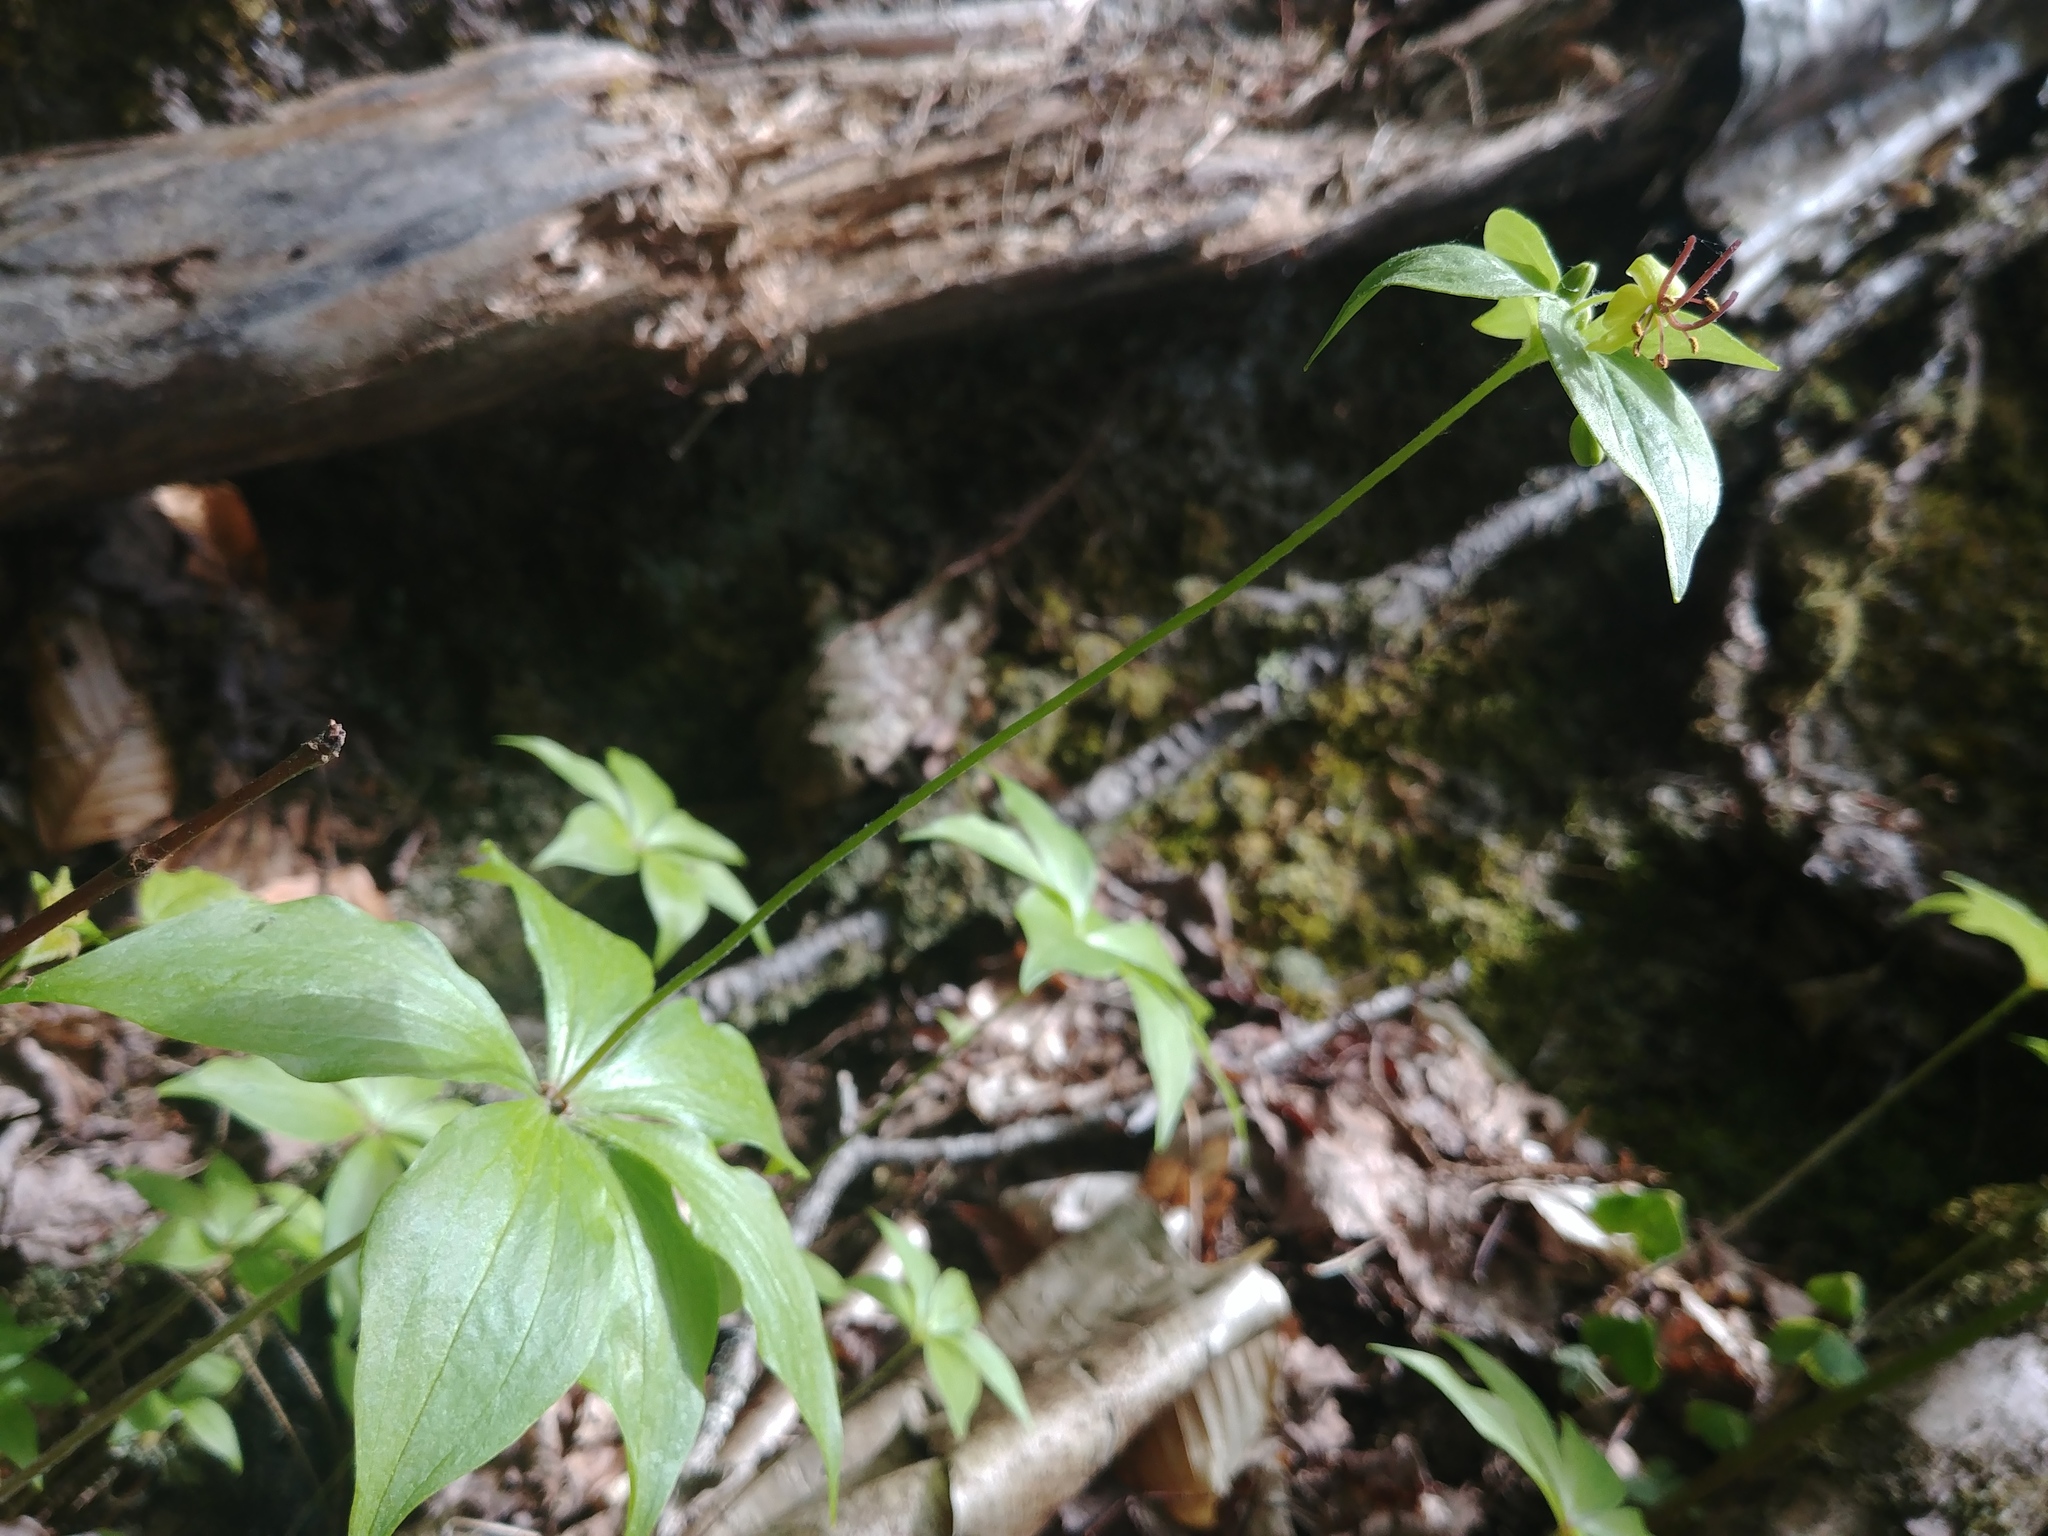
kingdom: Plantae
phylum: Tracheophyta
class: Liliopsida
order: Liliales
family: Liliaceae
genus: Medeola
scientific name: Medeola virginiana
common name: Indian cucumber-root
